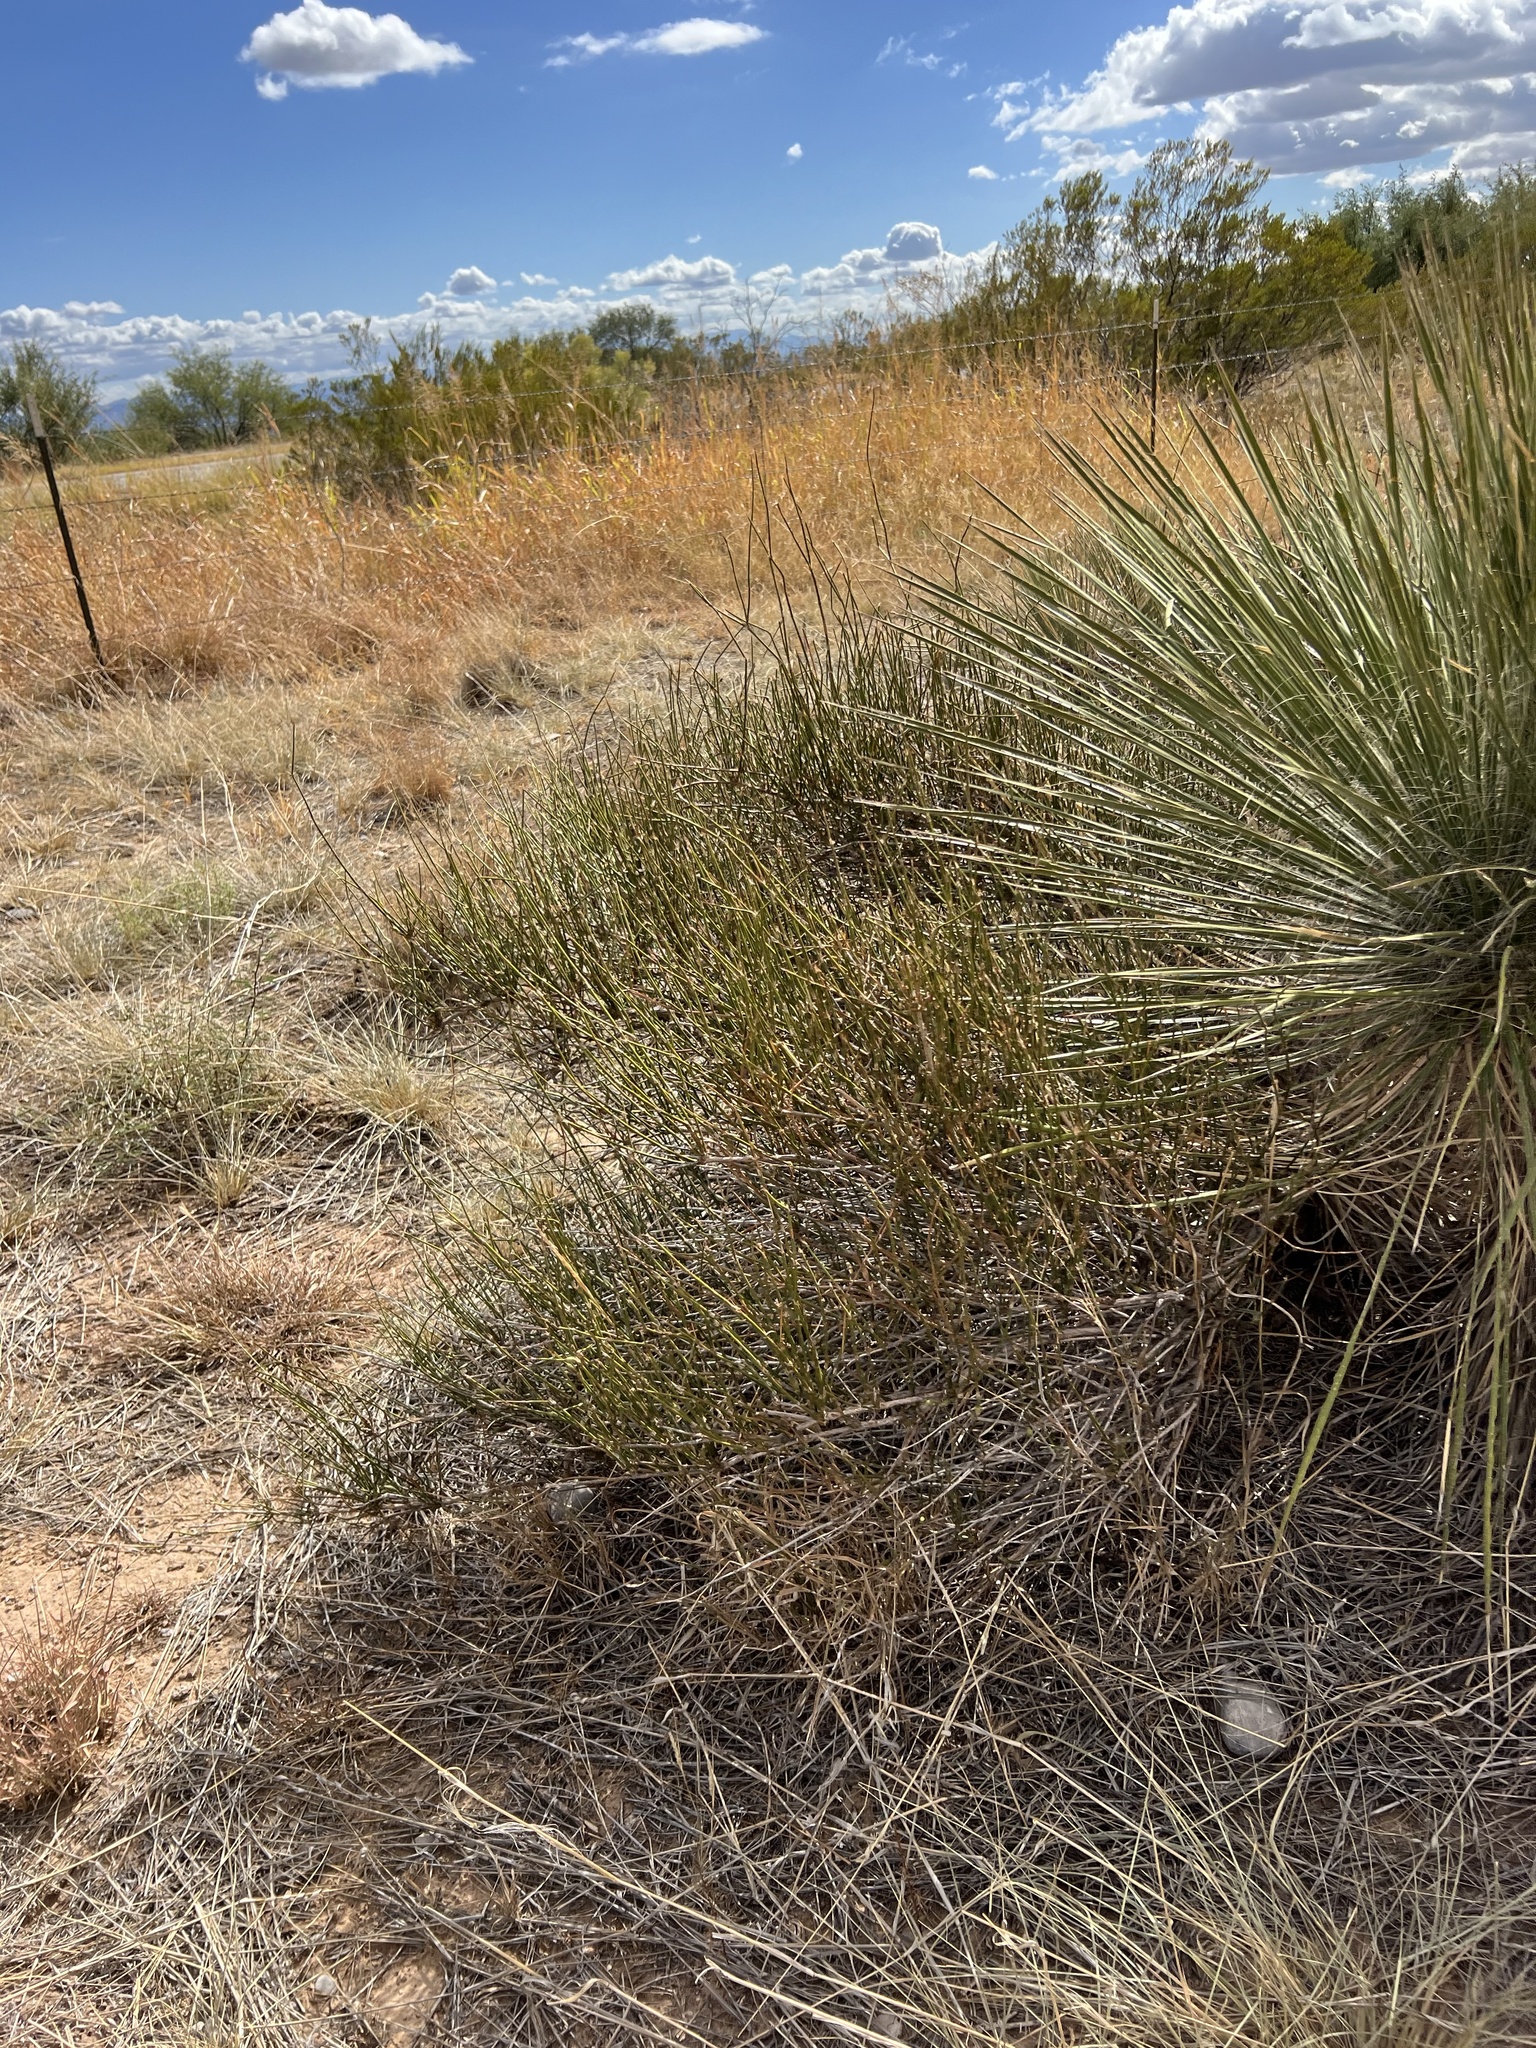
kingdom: Plantae
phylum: Tracheophyta
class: Gnetopsida
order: Ephedrales
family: Ephedraceae
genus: Ephedra
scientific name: Ephedra trifurca
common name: Mexican-tea
